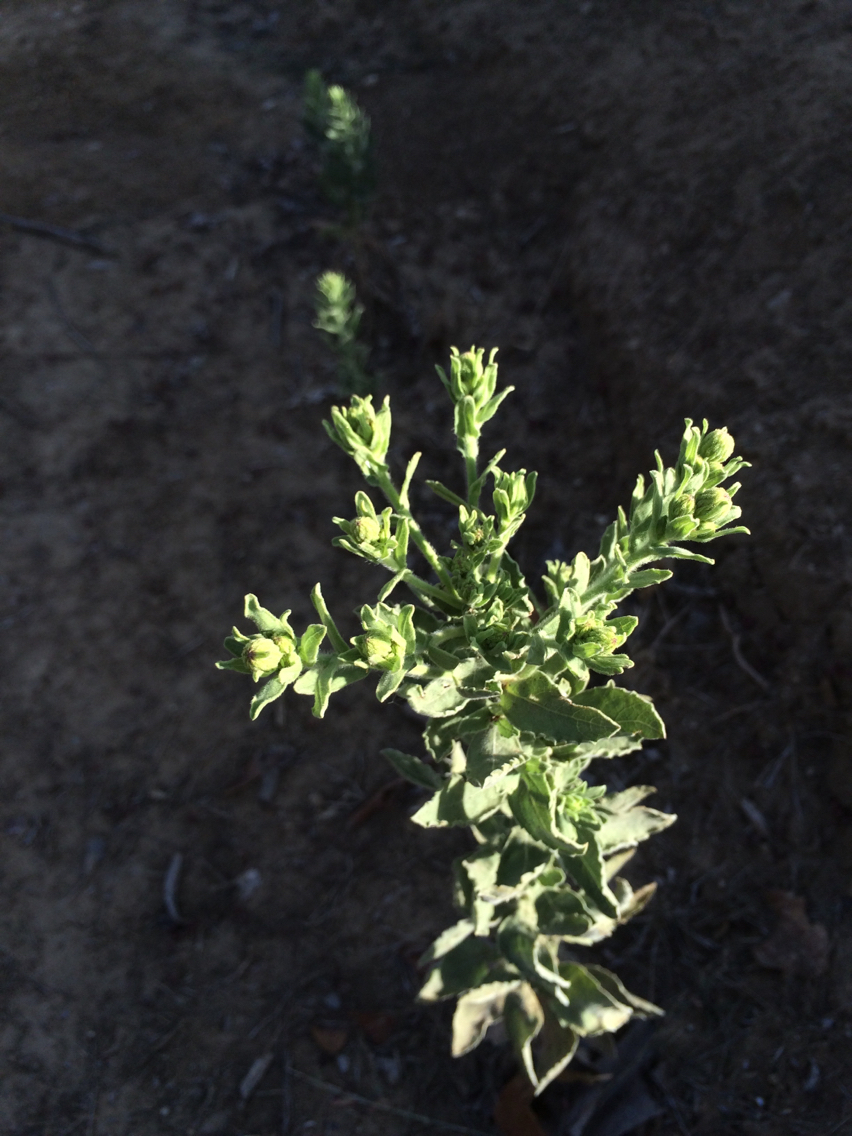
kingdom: Plantae
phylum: Tracheophyta
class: Magnoliopsida
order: Asterales
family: Asteraceae
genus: Heterotheca
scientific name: Heterotheca grandiflora
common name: Telegraphweed
